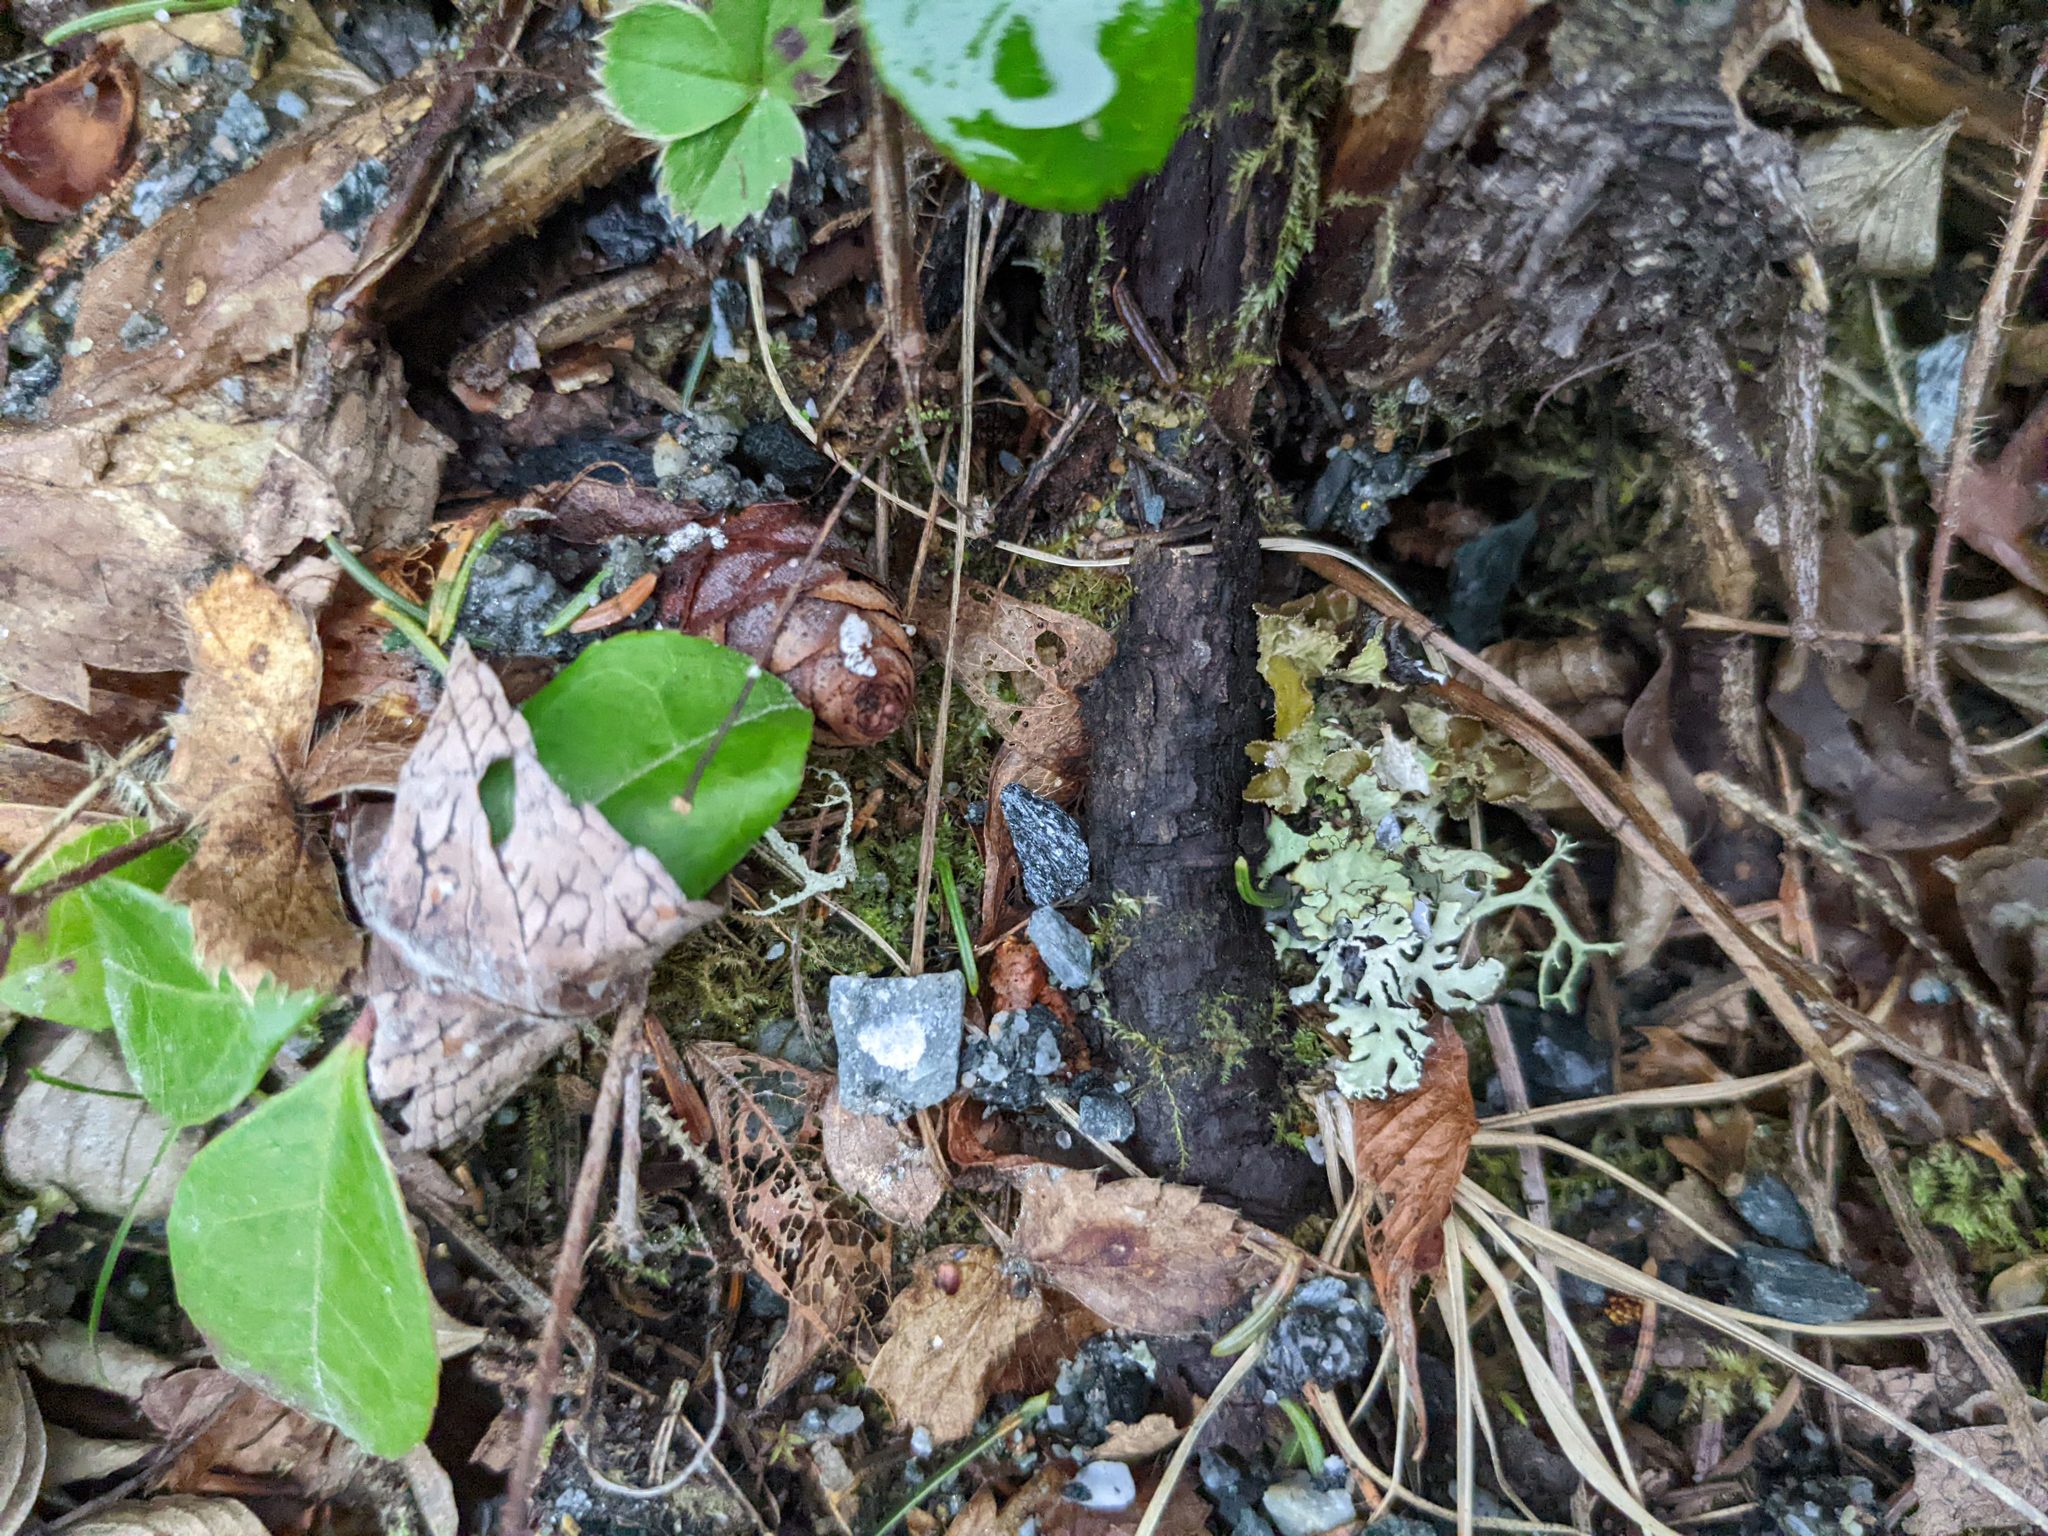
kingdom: Plantae
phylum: Tracheophyta
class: Magnoliopsida
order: Ericales
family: Ericaceae
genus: Gaultheria
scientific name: Gaultheria procumbens
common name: Checkerberry
